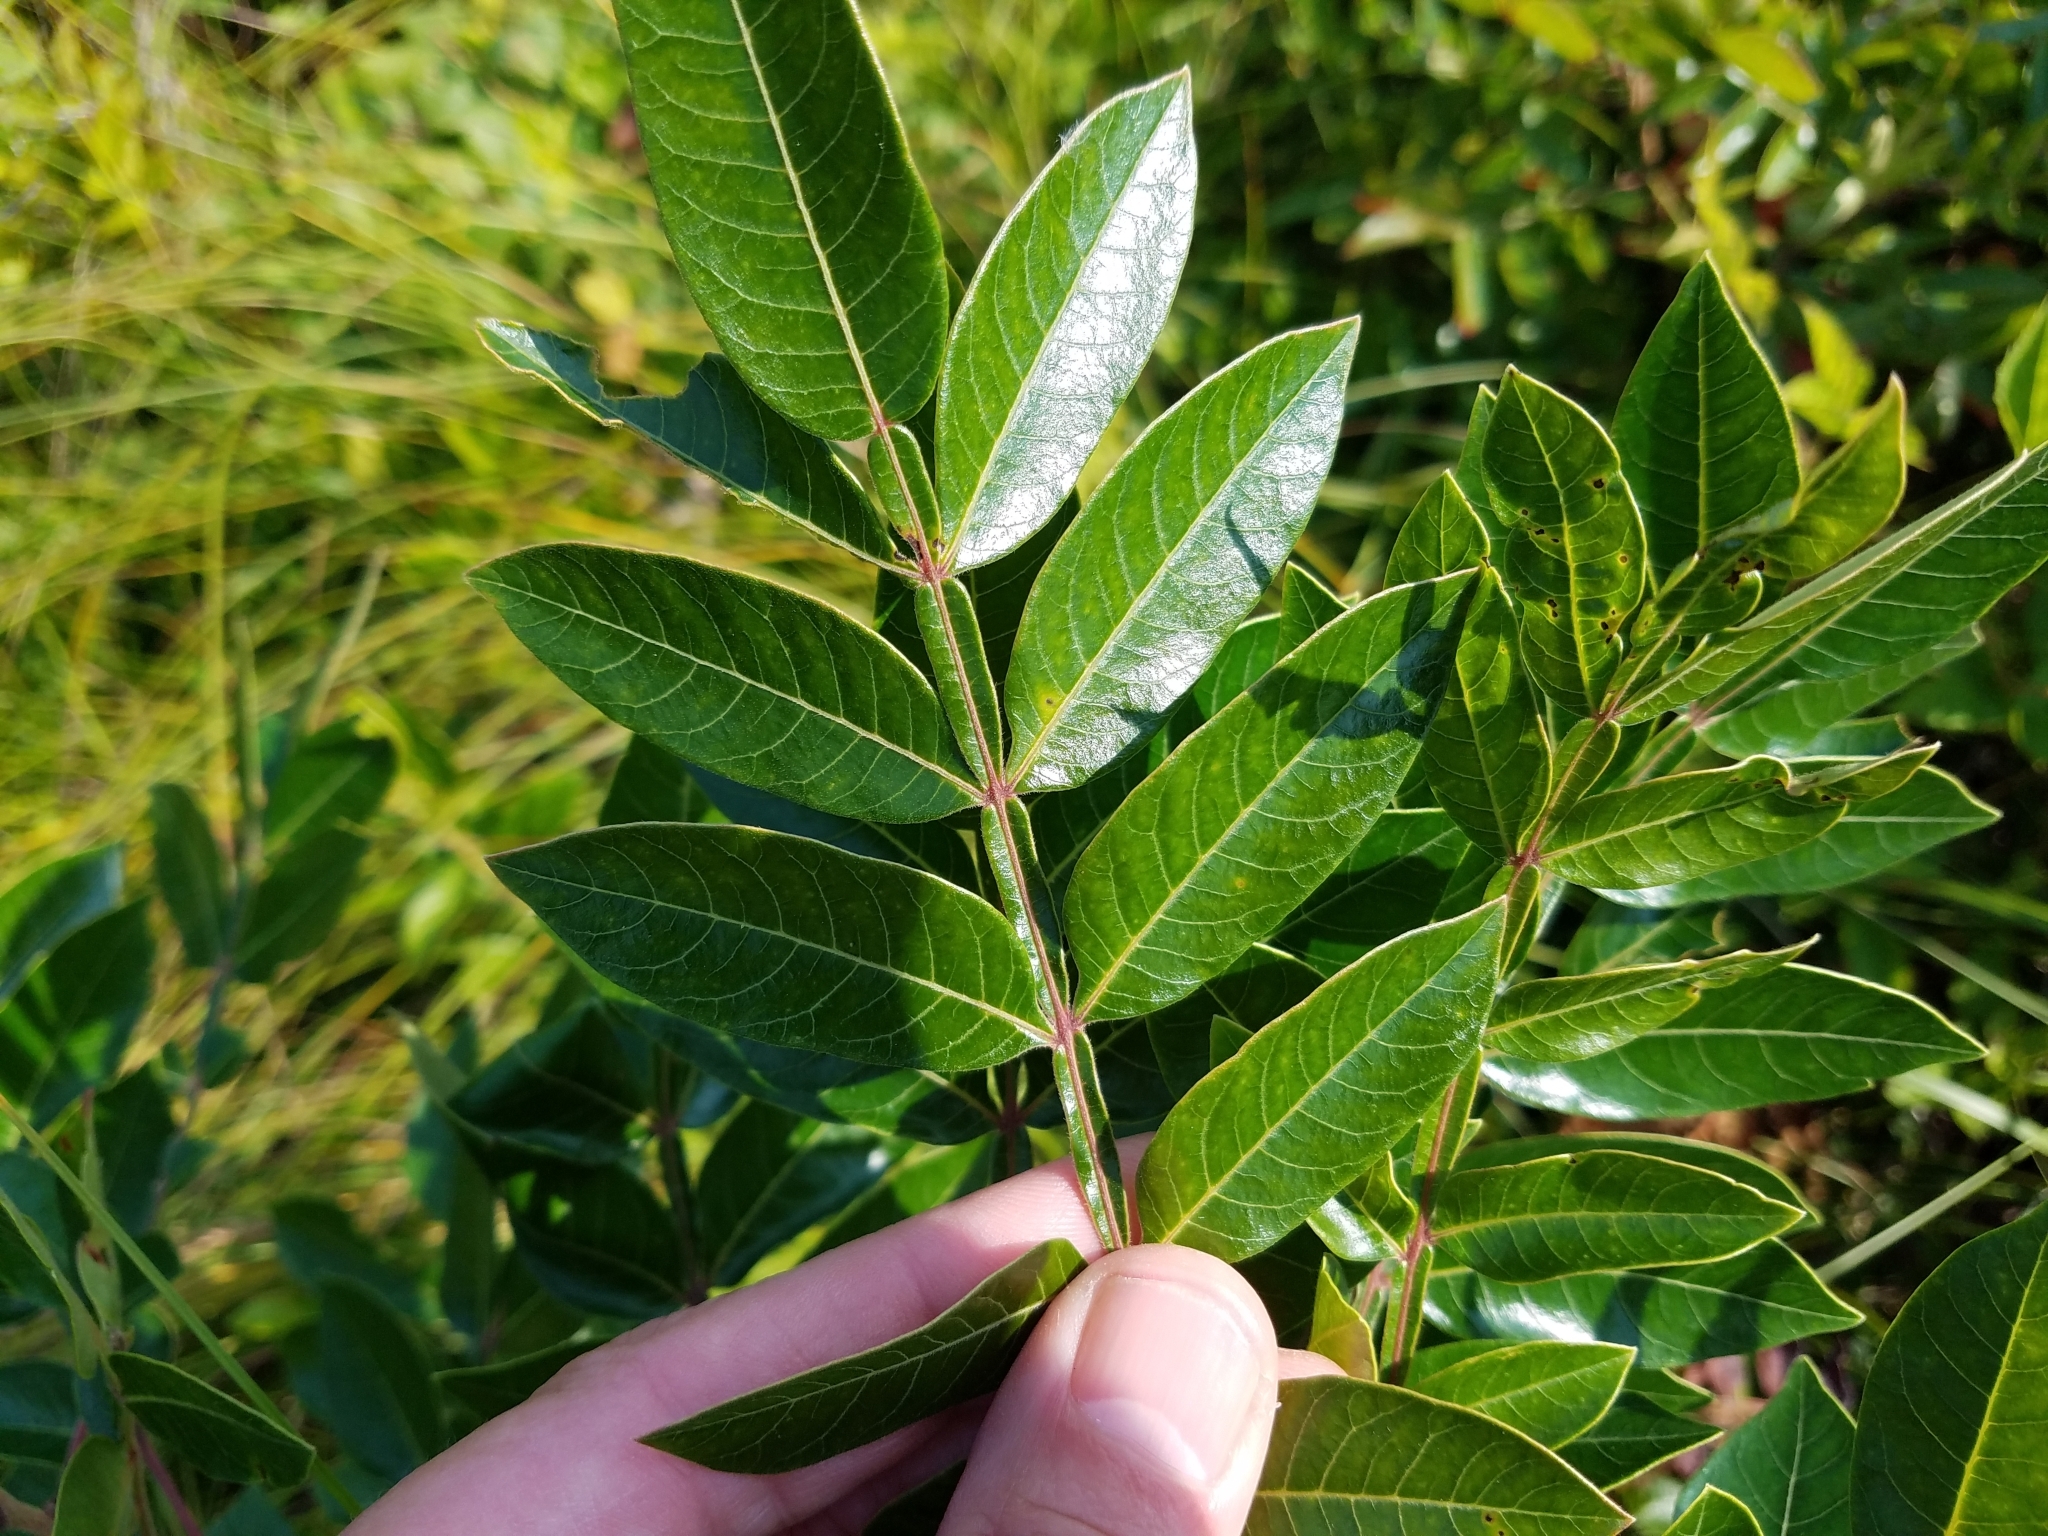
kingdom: Plantae
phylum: Tracheophyta
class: Magnoliopsida
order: Sapindales
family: Anacardiaceae
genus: Rhus
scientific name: Rhus copallina
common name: Shining sumac
